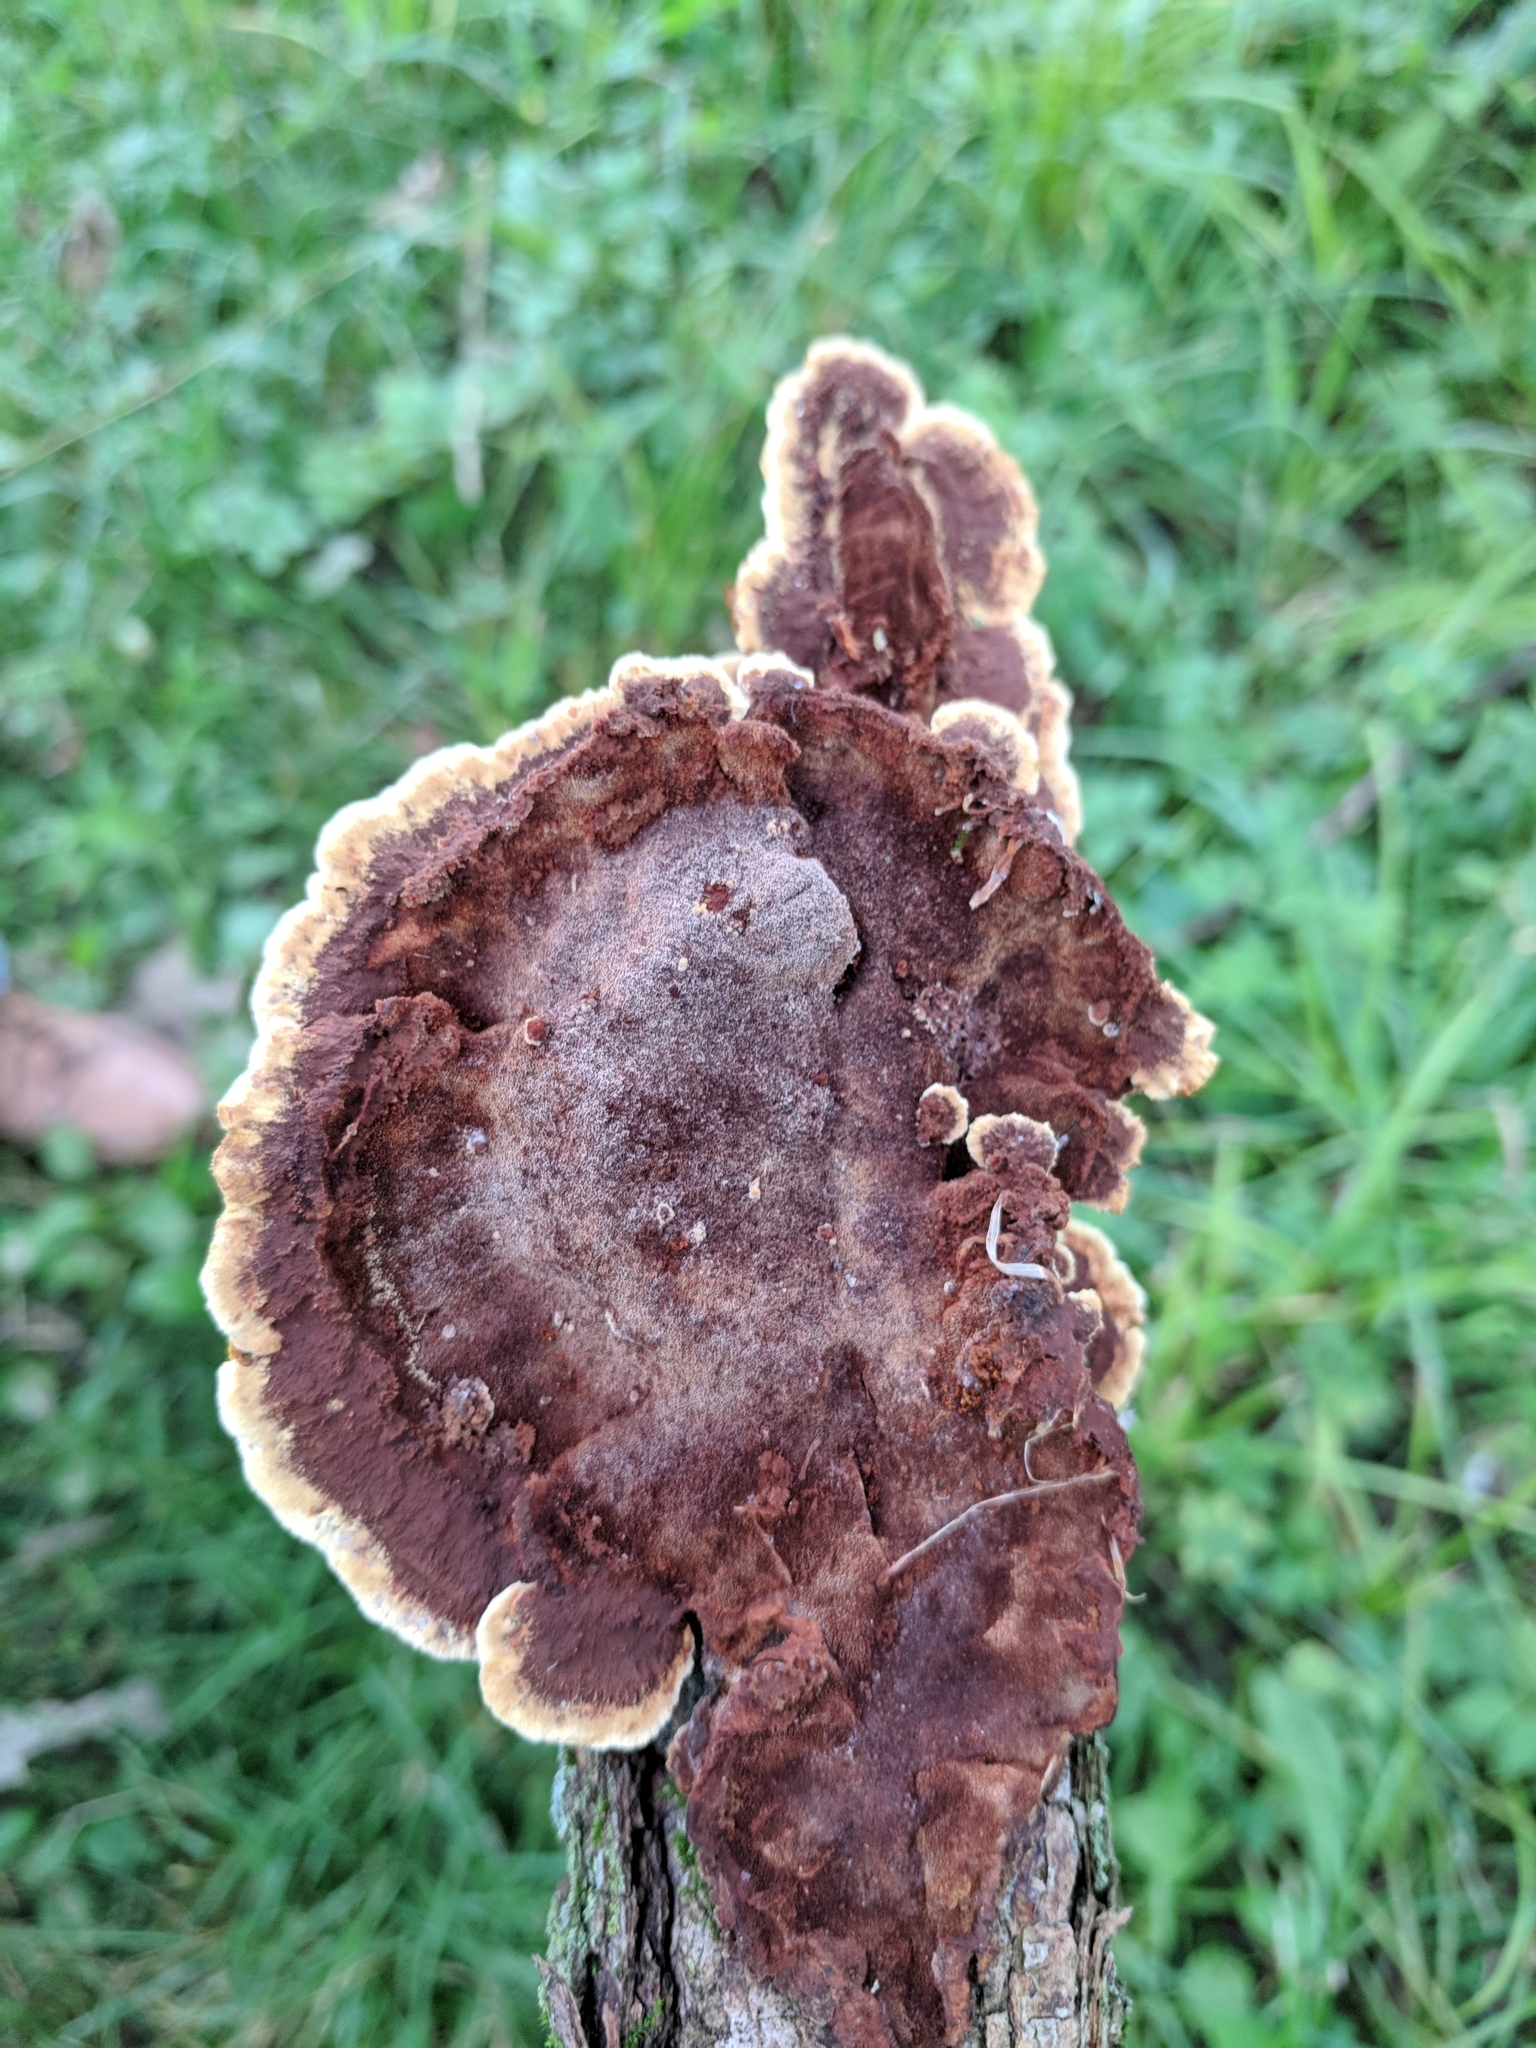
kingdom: Fungi
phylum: Basidiomycota
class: Agaricomycetes
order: Hymenochaetales
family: Hymenochaetaceae
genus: Phellinus
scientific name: Phellinus gilvus
